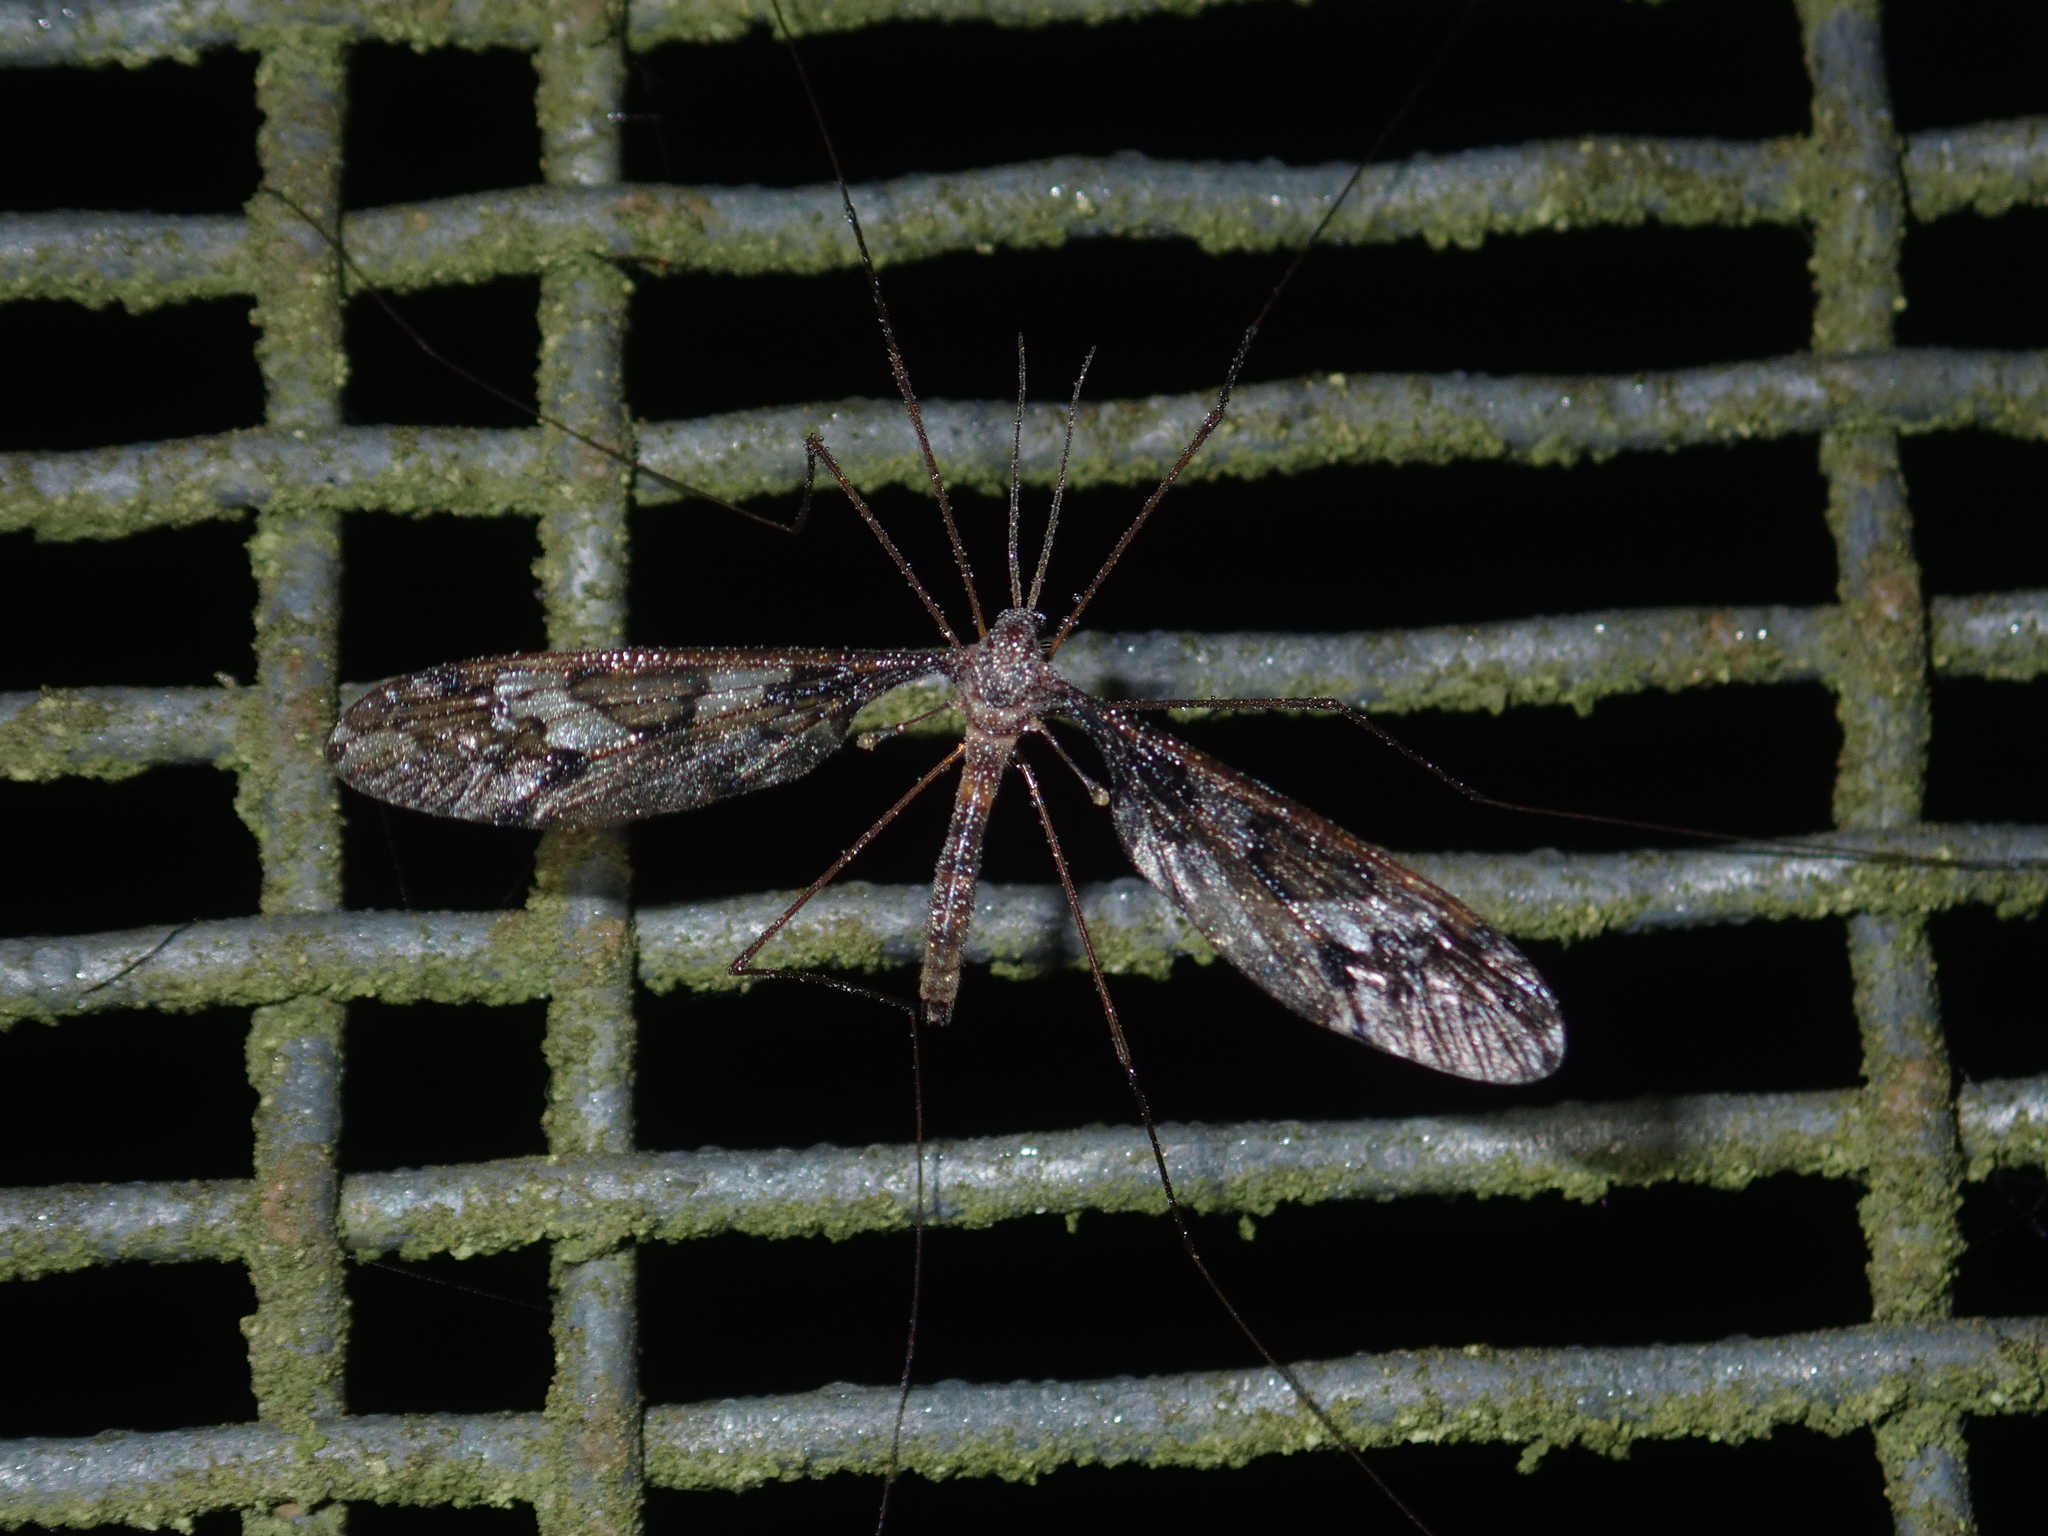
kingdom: Animalia
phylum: Arthropoda
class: Insecta
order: Diptera
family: Tipulidae
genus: Leptotarsus
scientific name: Leptotarsus binotatus
